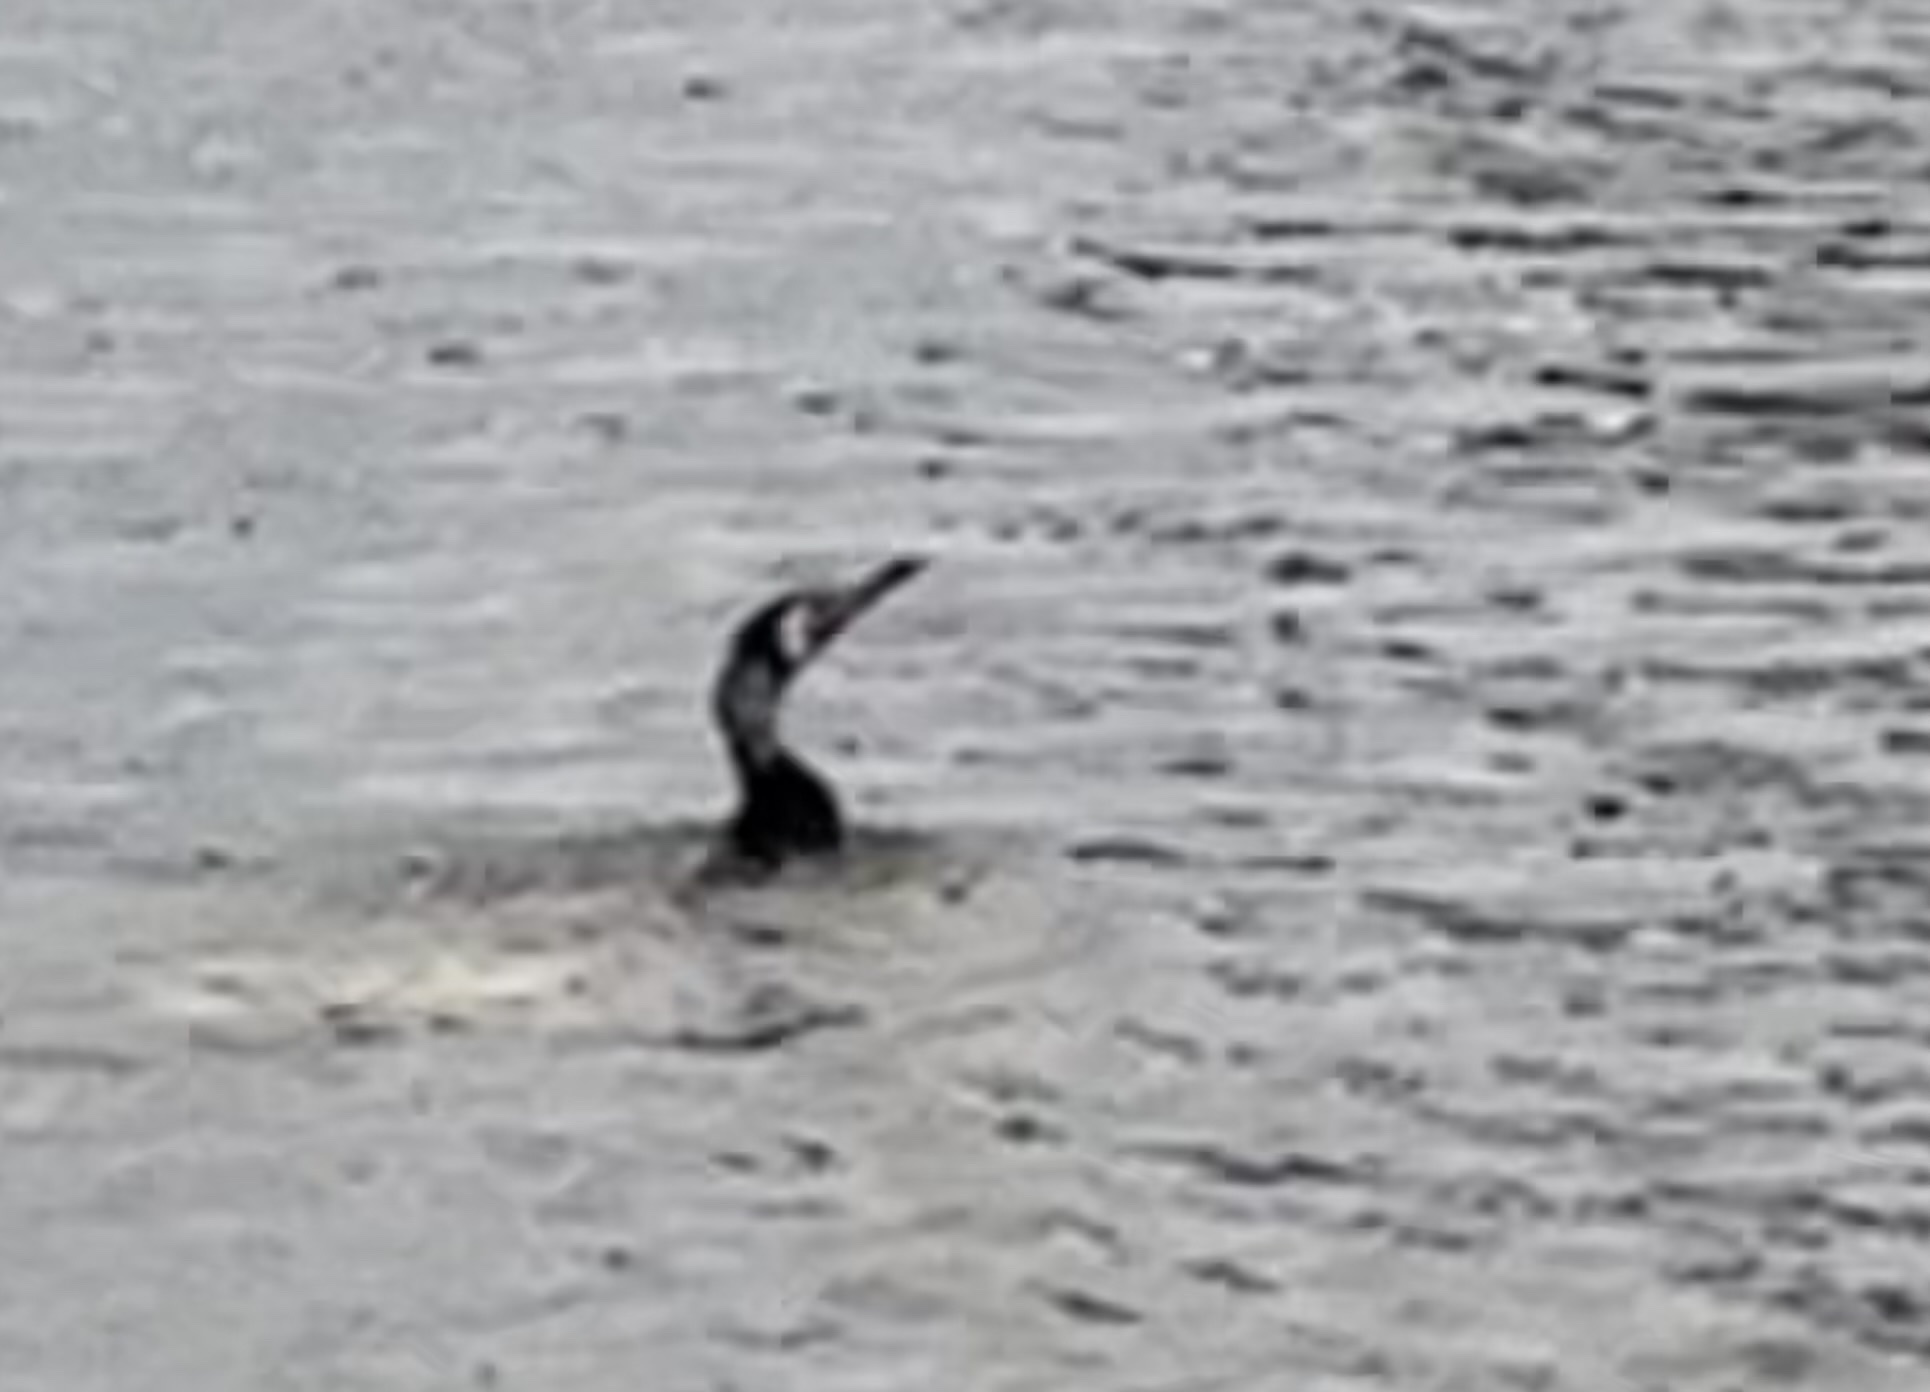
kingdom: Animalia
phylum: Chordata
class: Aves
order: Suliformes
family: Phalacrocoracidae
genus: Phalacrocorax
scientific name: Phalacrocorax carbo
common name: Great cormorant
